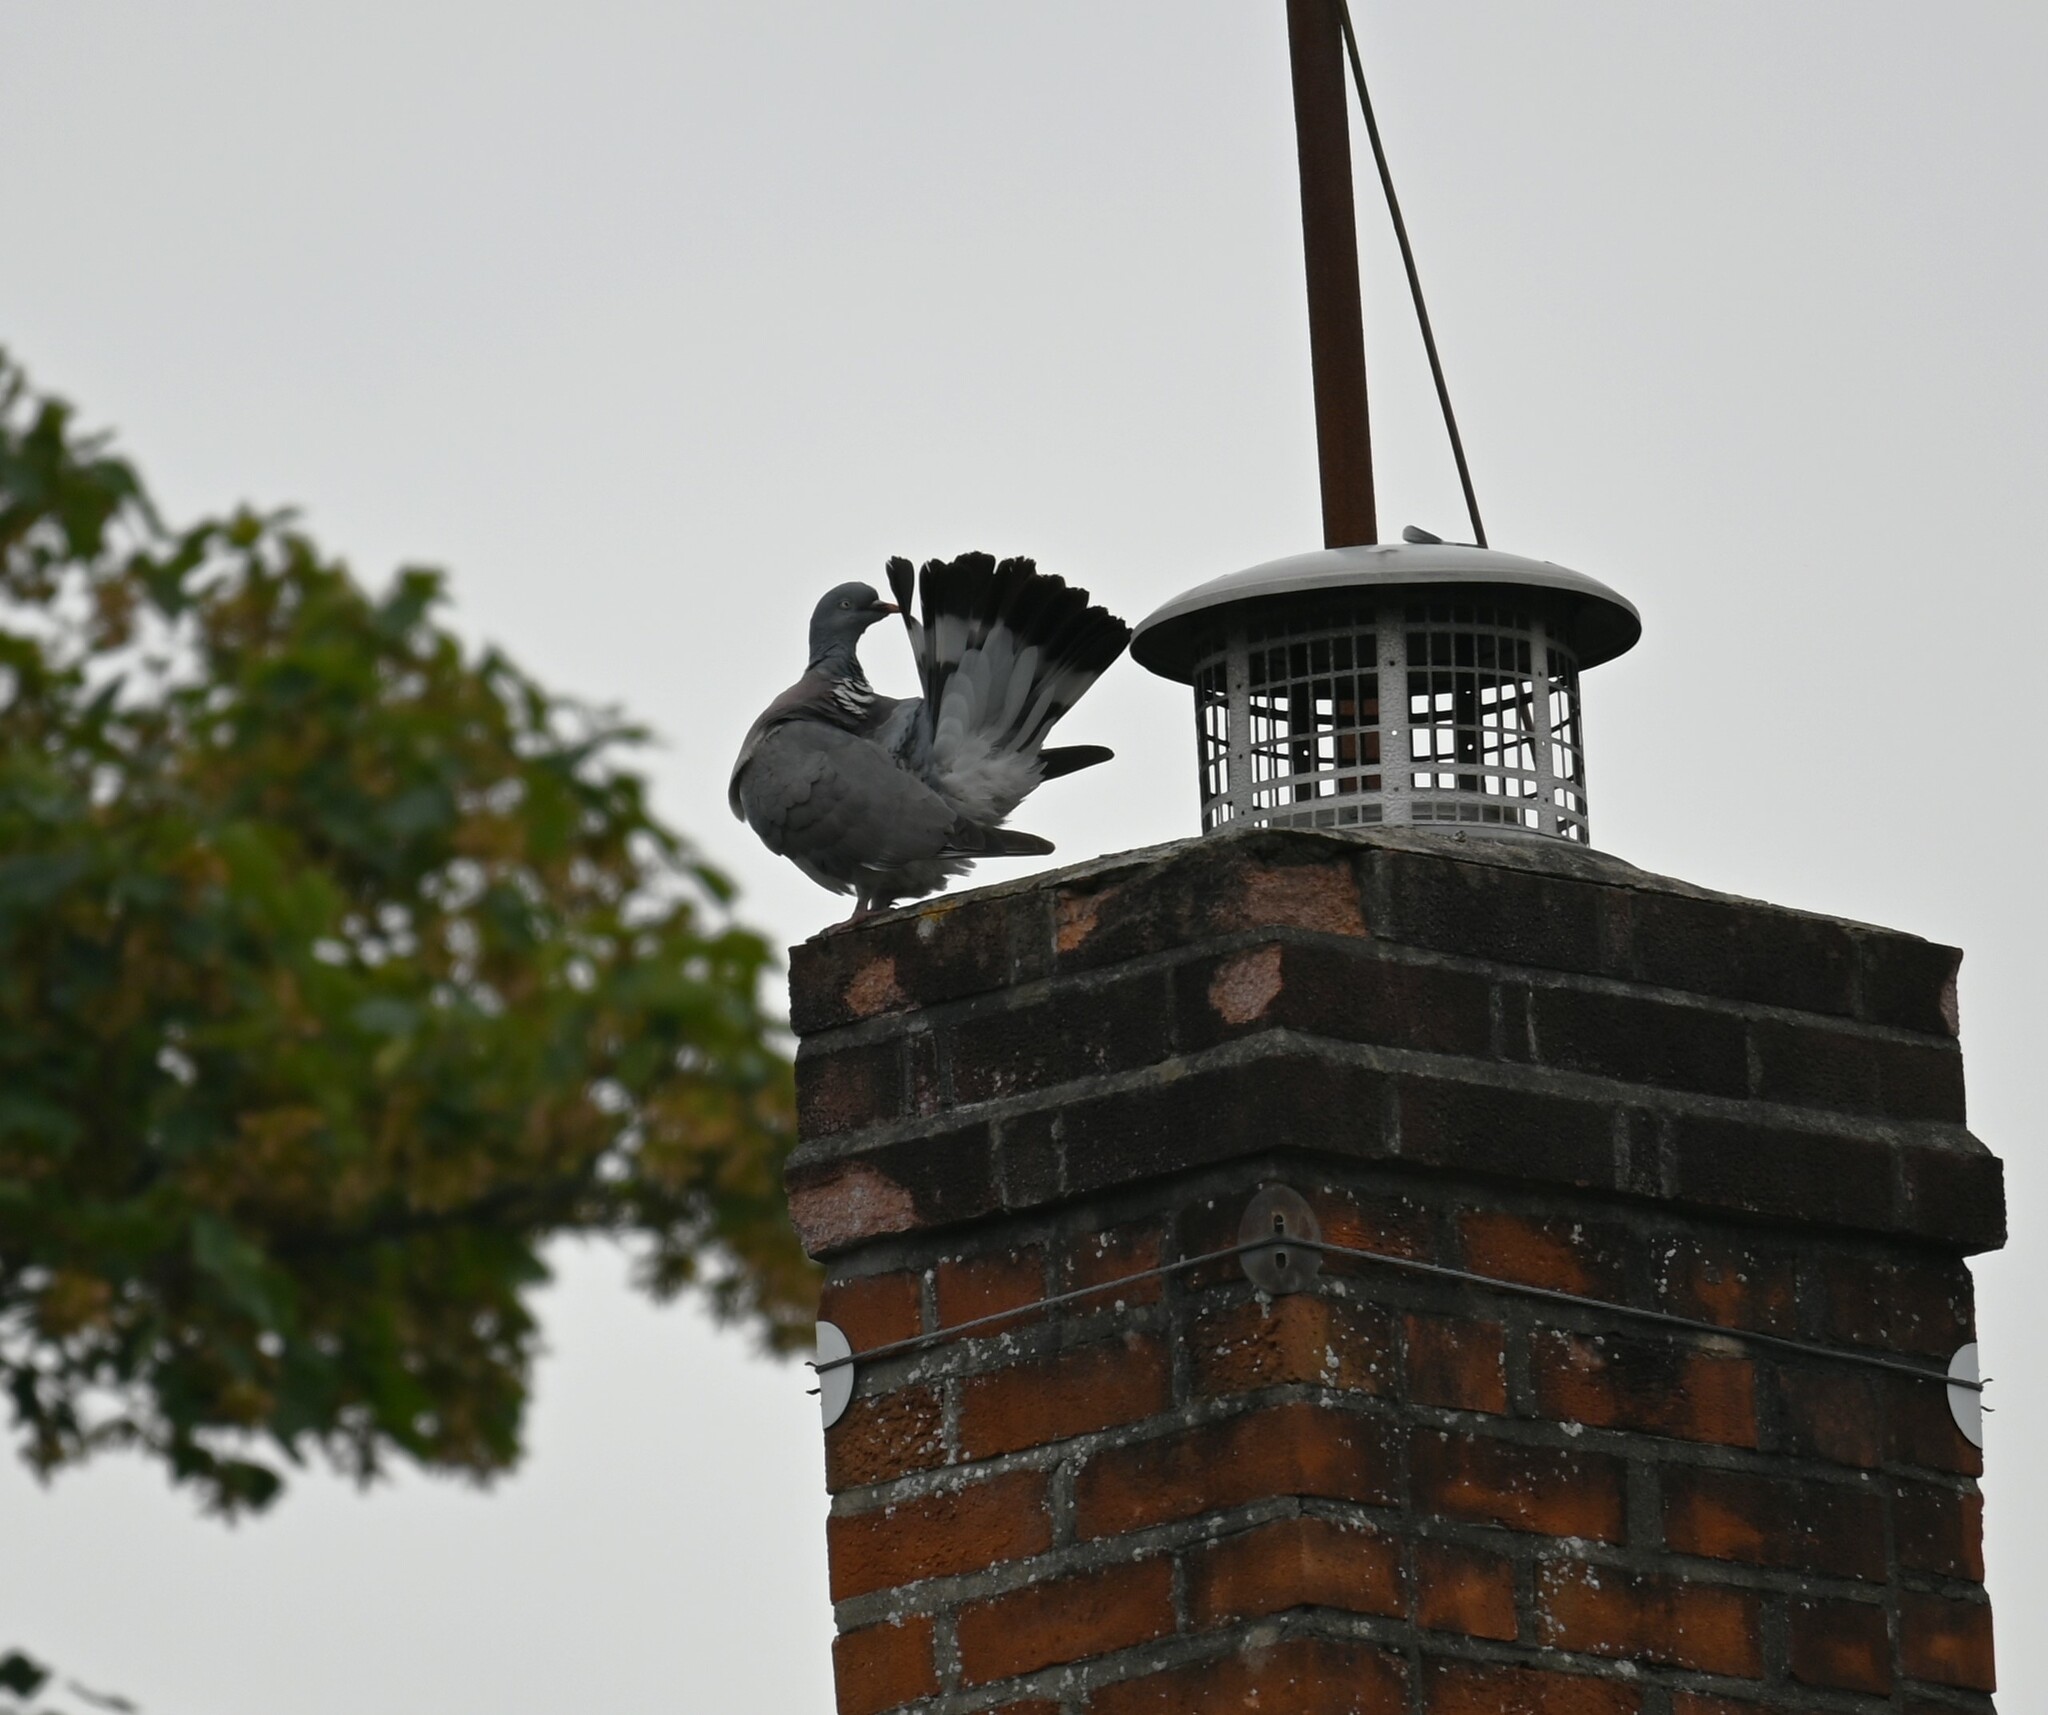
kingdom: Animalia
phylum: Chordata
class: Aves
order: Columbiformes
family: Columbidae
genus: Columba
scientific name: Columba palumbus
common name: Common wood pigeon
